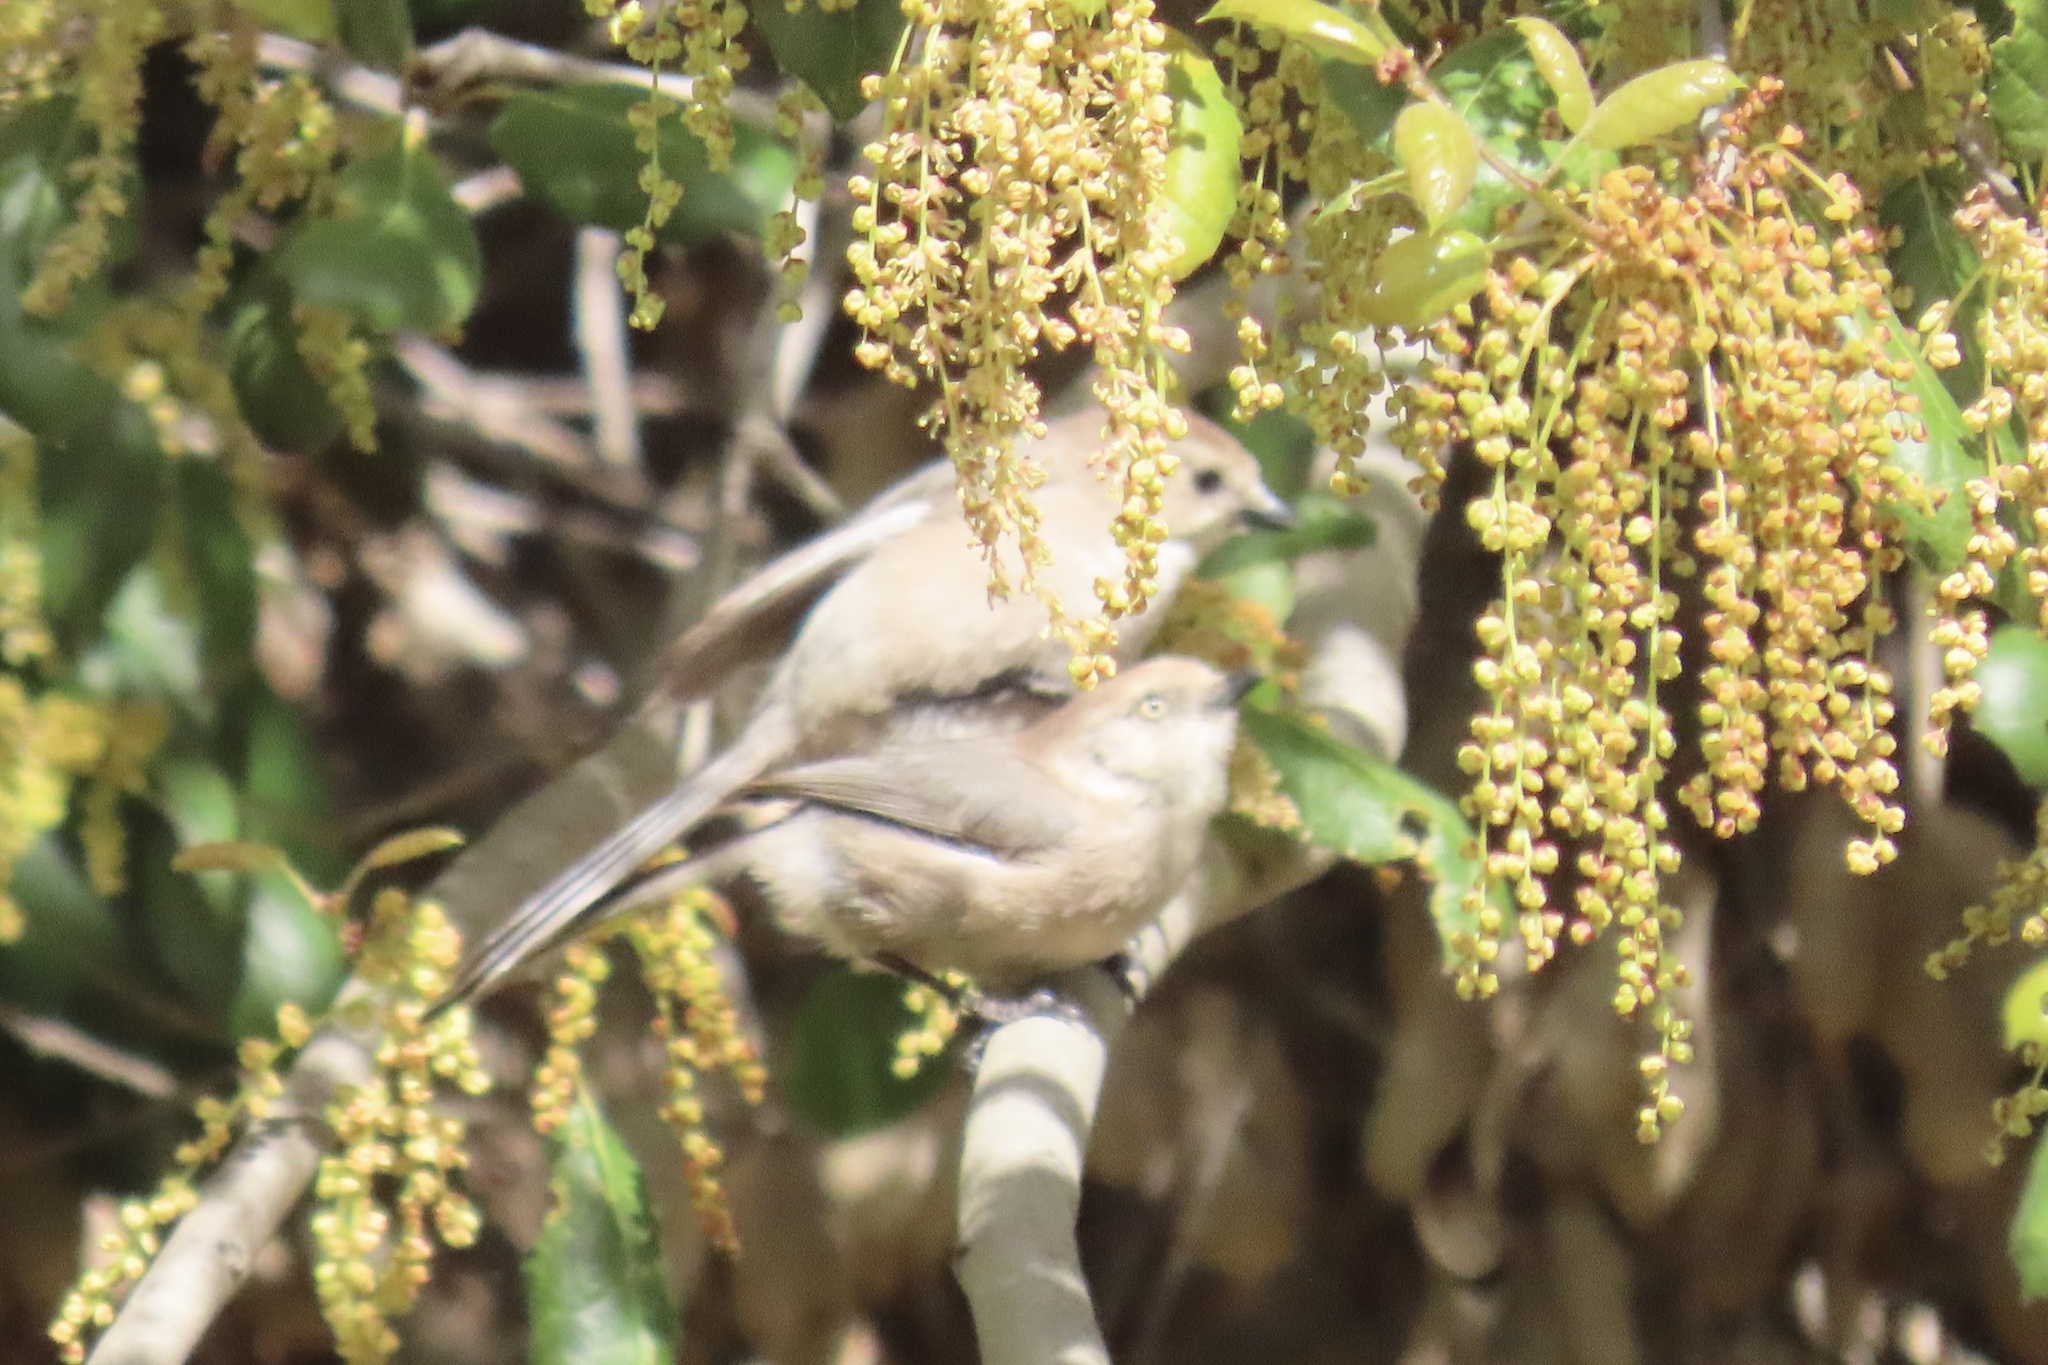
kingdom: Animalia
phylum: Chordata
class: Aves
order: Passeriformes
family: Aegithalidae
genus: Psaltriparus
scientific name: Psaltriparus minimus
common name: American bushtit
